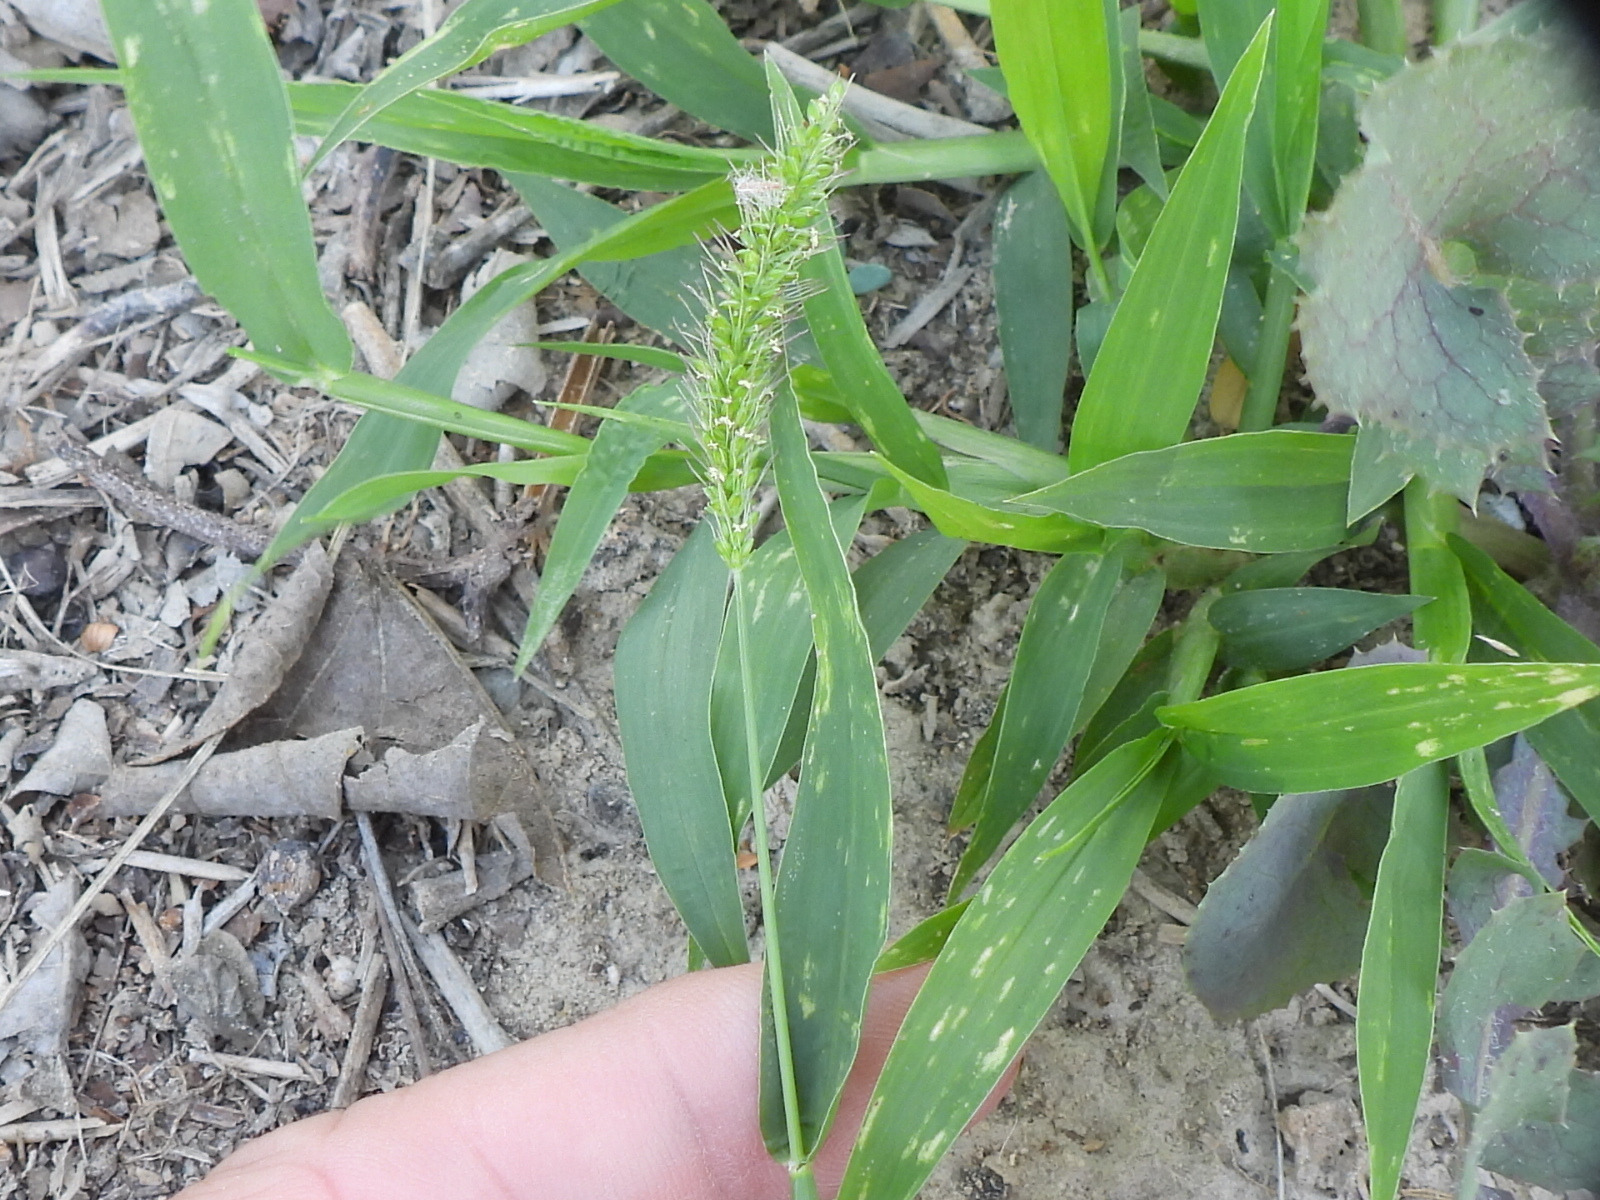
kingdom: Plantae
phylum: Tracheophyta
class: Liliopsida
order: Poales
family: Poaceae
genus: Setaria
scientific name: Setaria verticillata
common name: Hooked bristlegrass
